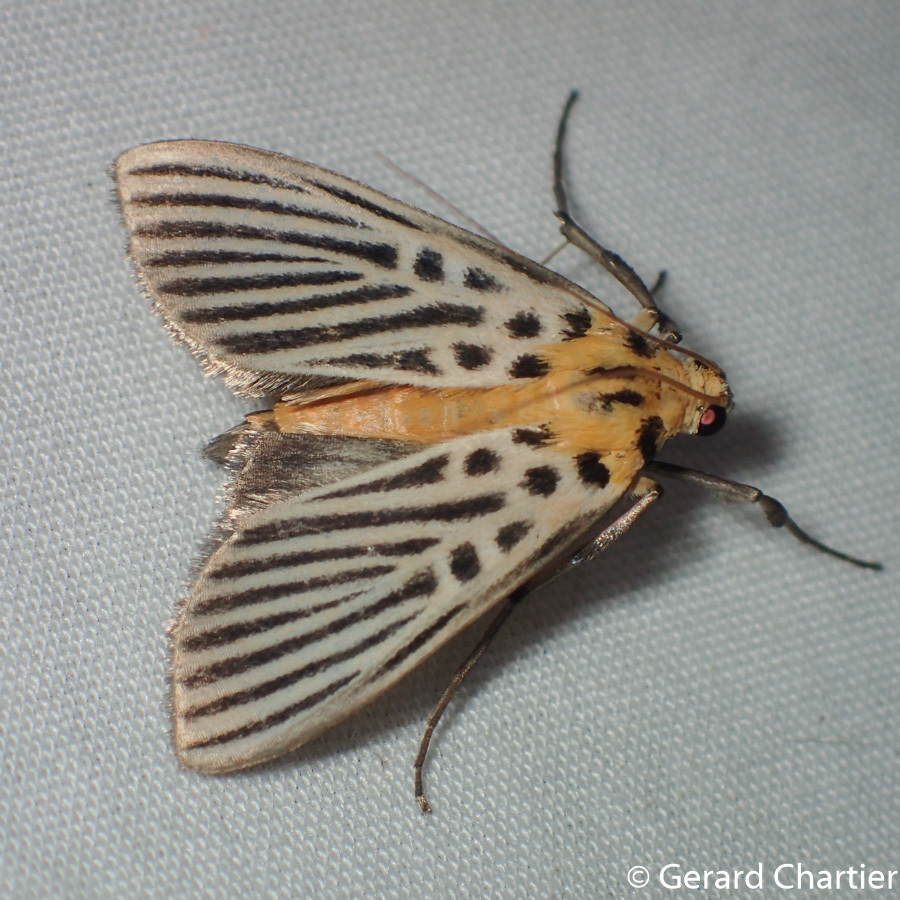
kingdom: Animalia
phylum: Arthropoda
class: Insecta
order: Lepidoptera
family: Crambidae
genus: Tyspanodes
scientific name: Tyspanodes hypsalis
